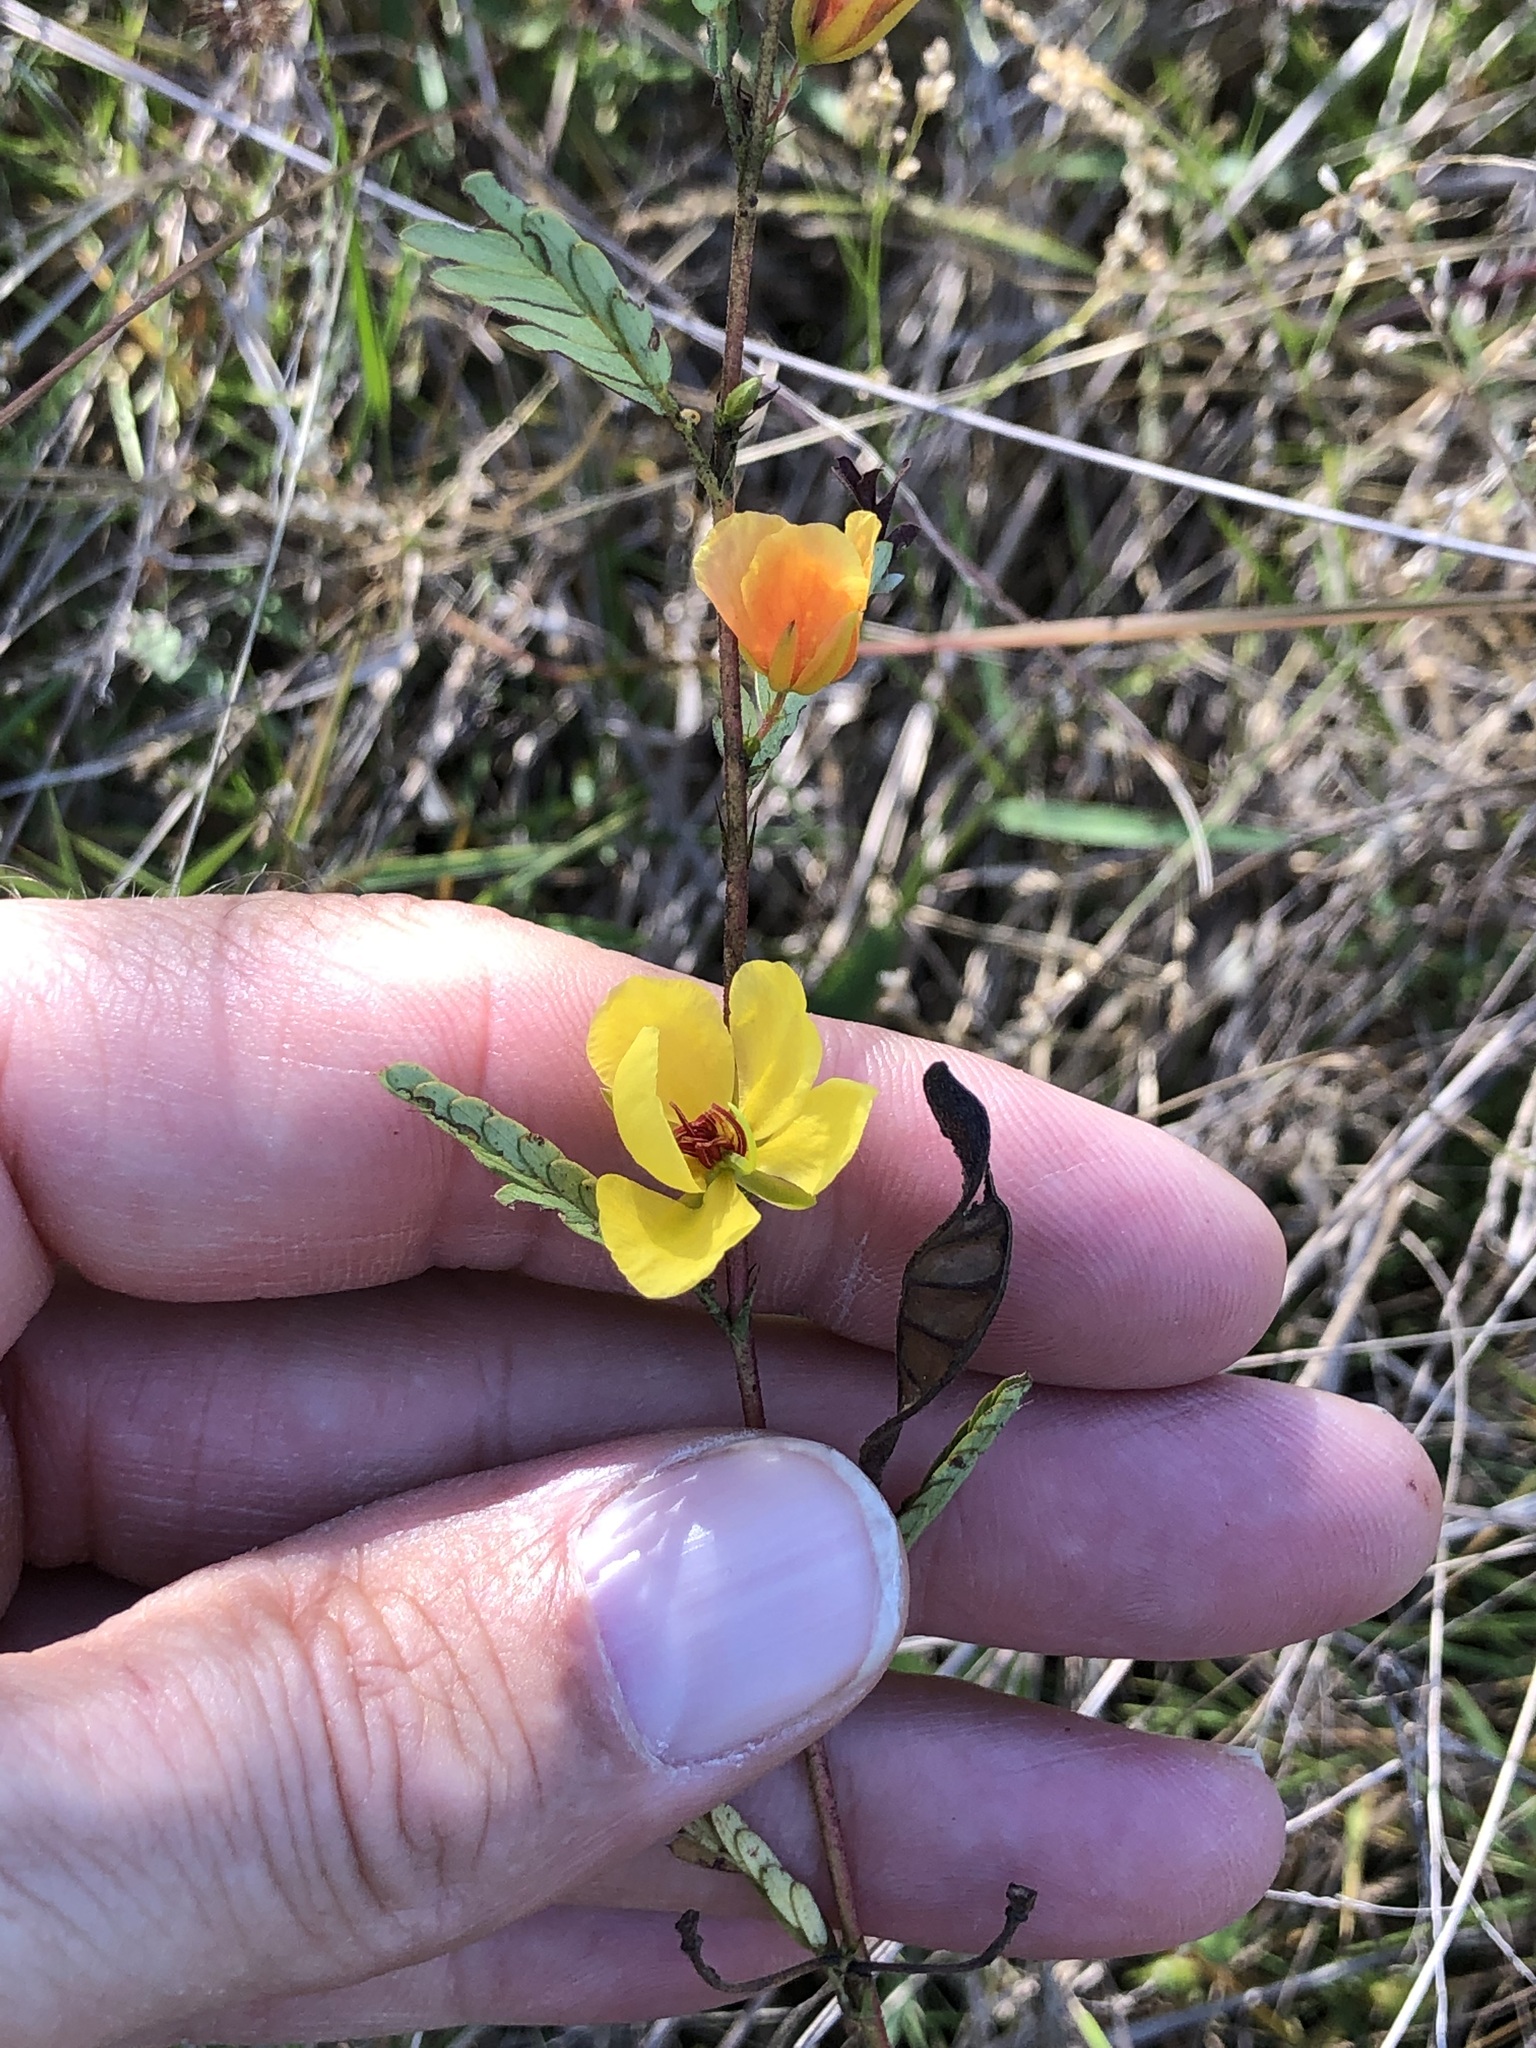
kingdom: Plantae
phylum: Tracheophyta
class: Magnoliopsida
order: Fabales
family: Fabaceae
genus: Chamaecrista
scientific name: Chamaecrista fasciculata
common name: Golden cassia
